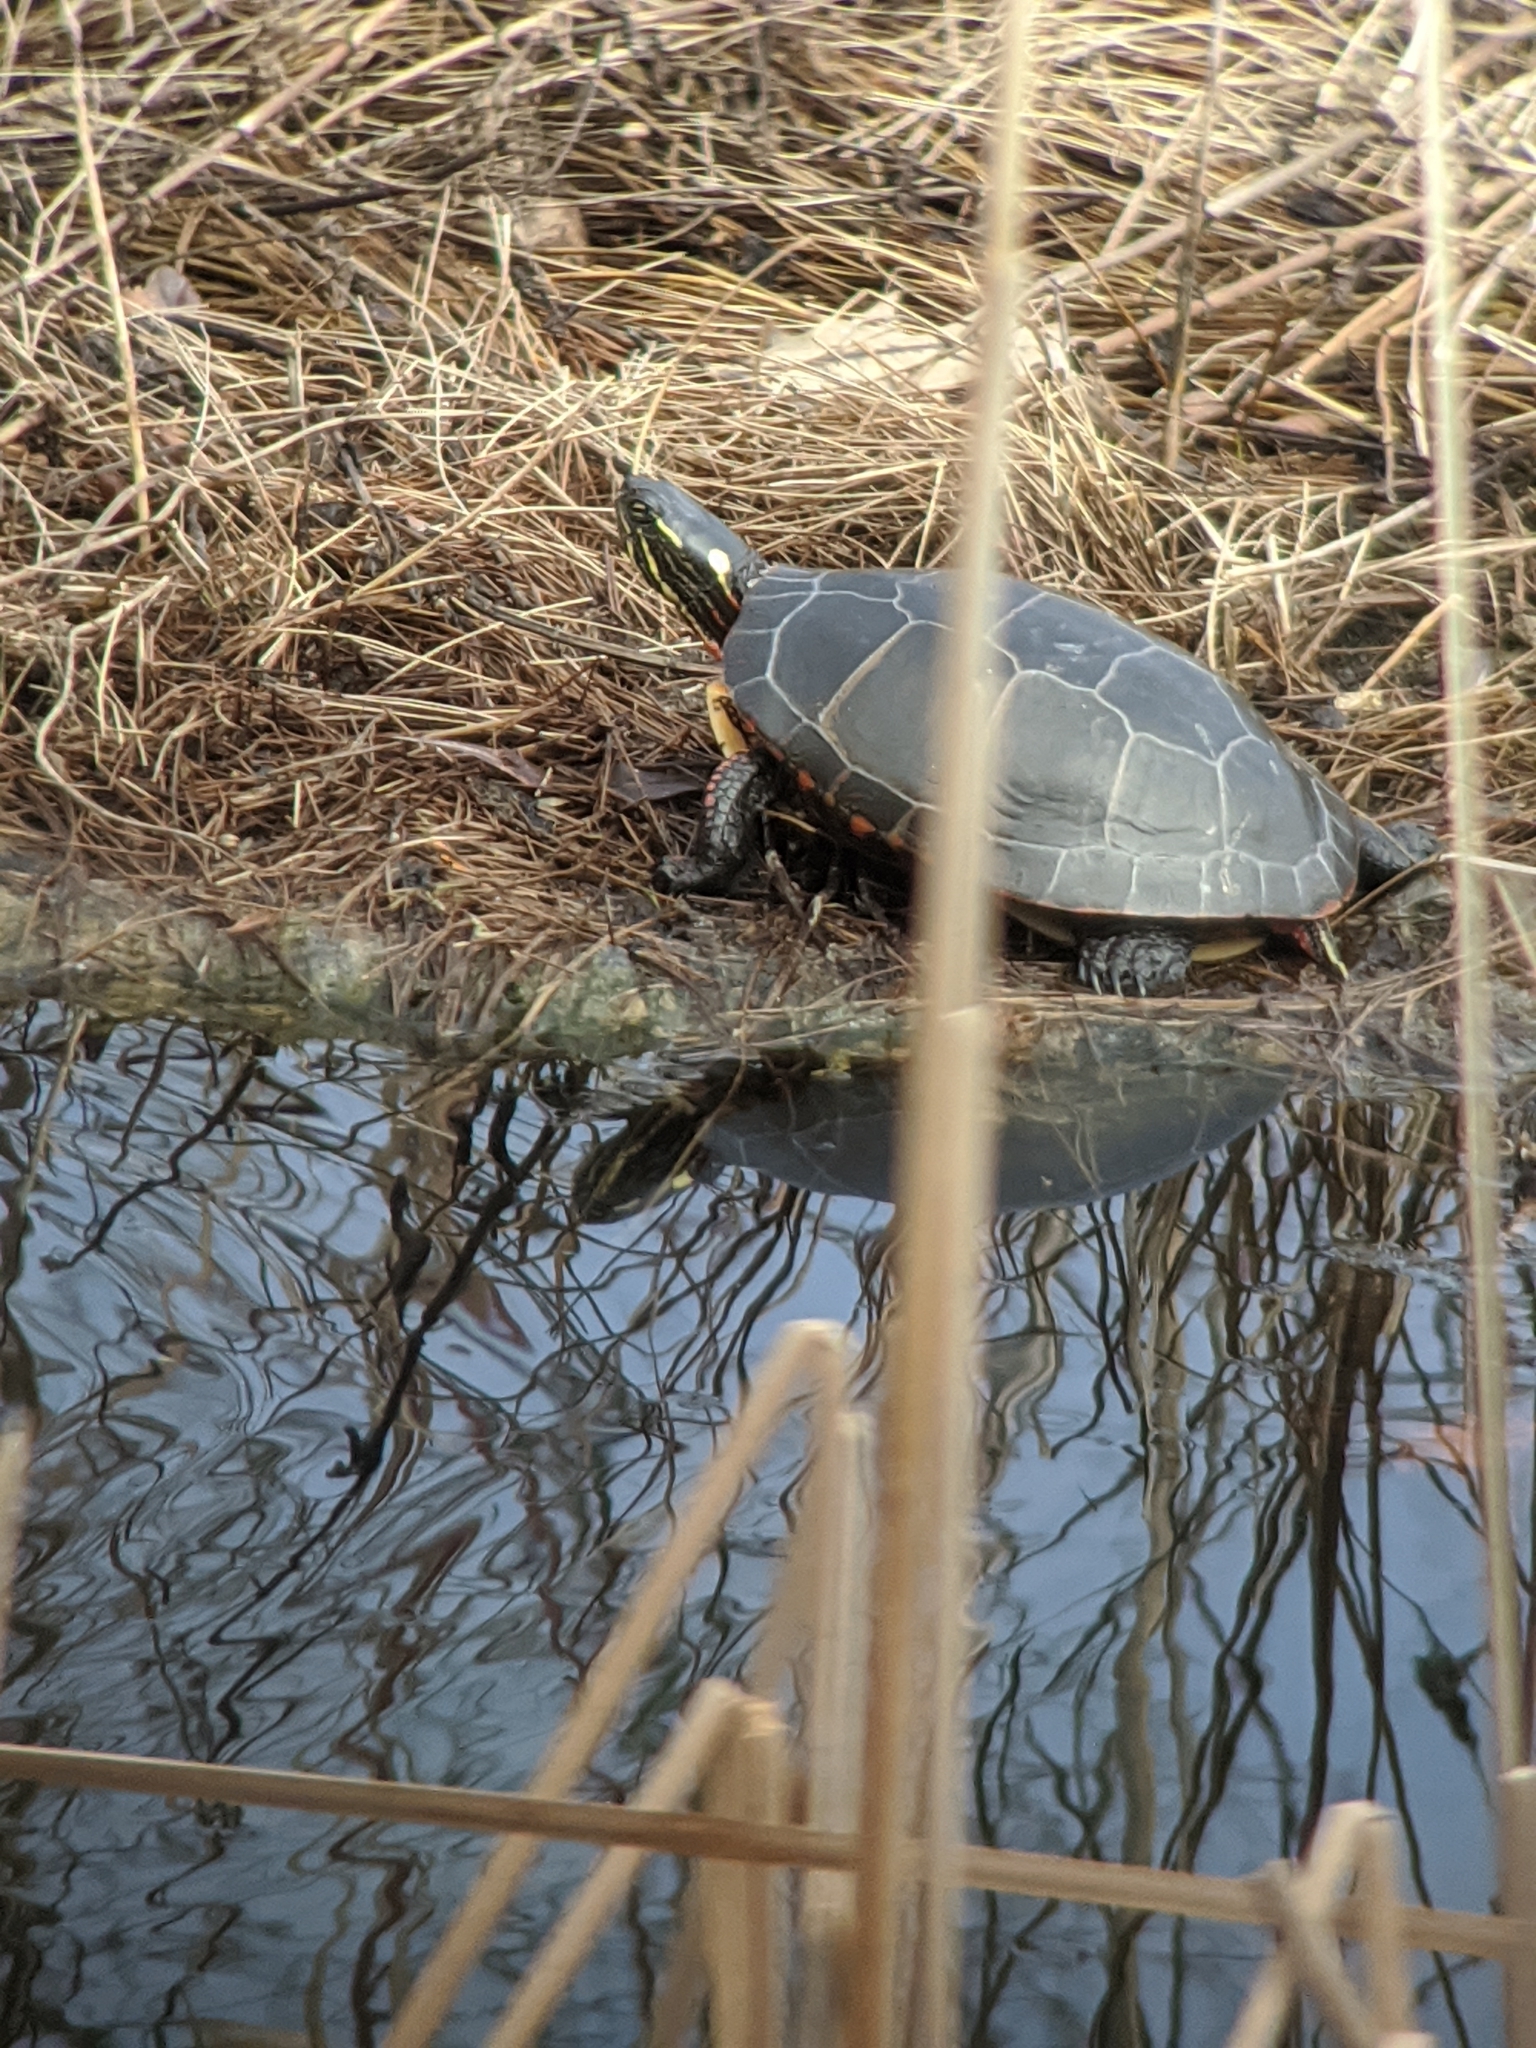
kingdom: Animalia
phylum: Chordata
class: Testudines
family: Emydidae
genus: Chrysemys
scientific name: Chrysemys picta
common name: Painted turtle
